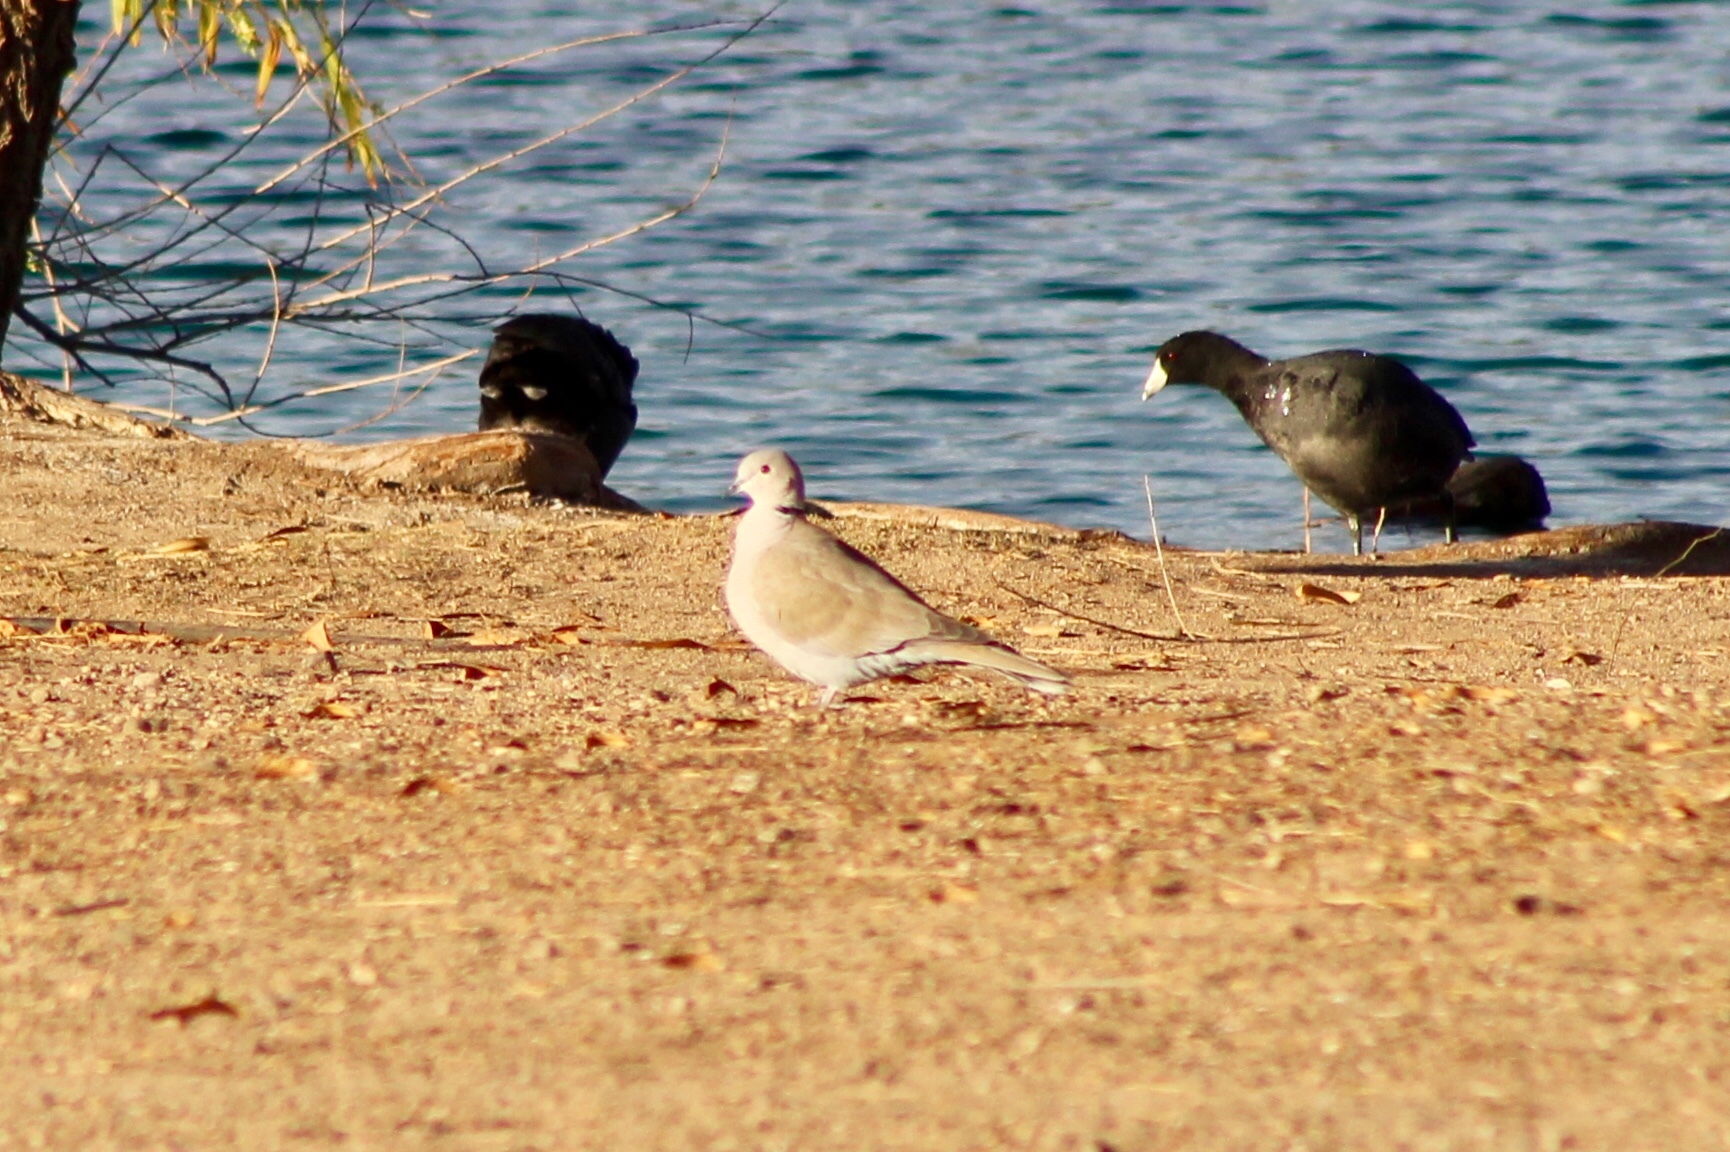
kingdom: Animalia
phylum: Chordata
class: Aves
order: Columbiformes
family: Columbidae
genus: Streptopelia
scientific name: Streptopelia decaocto
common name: Eurasian collared dove
